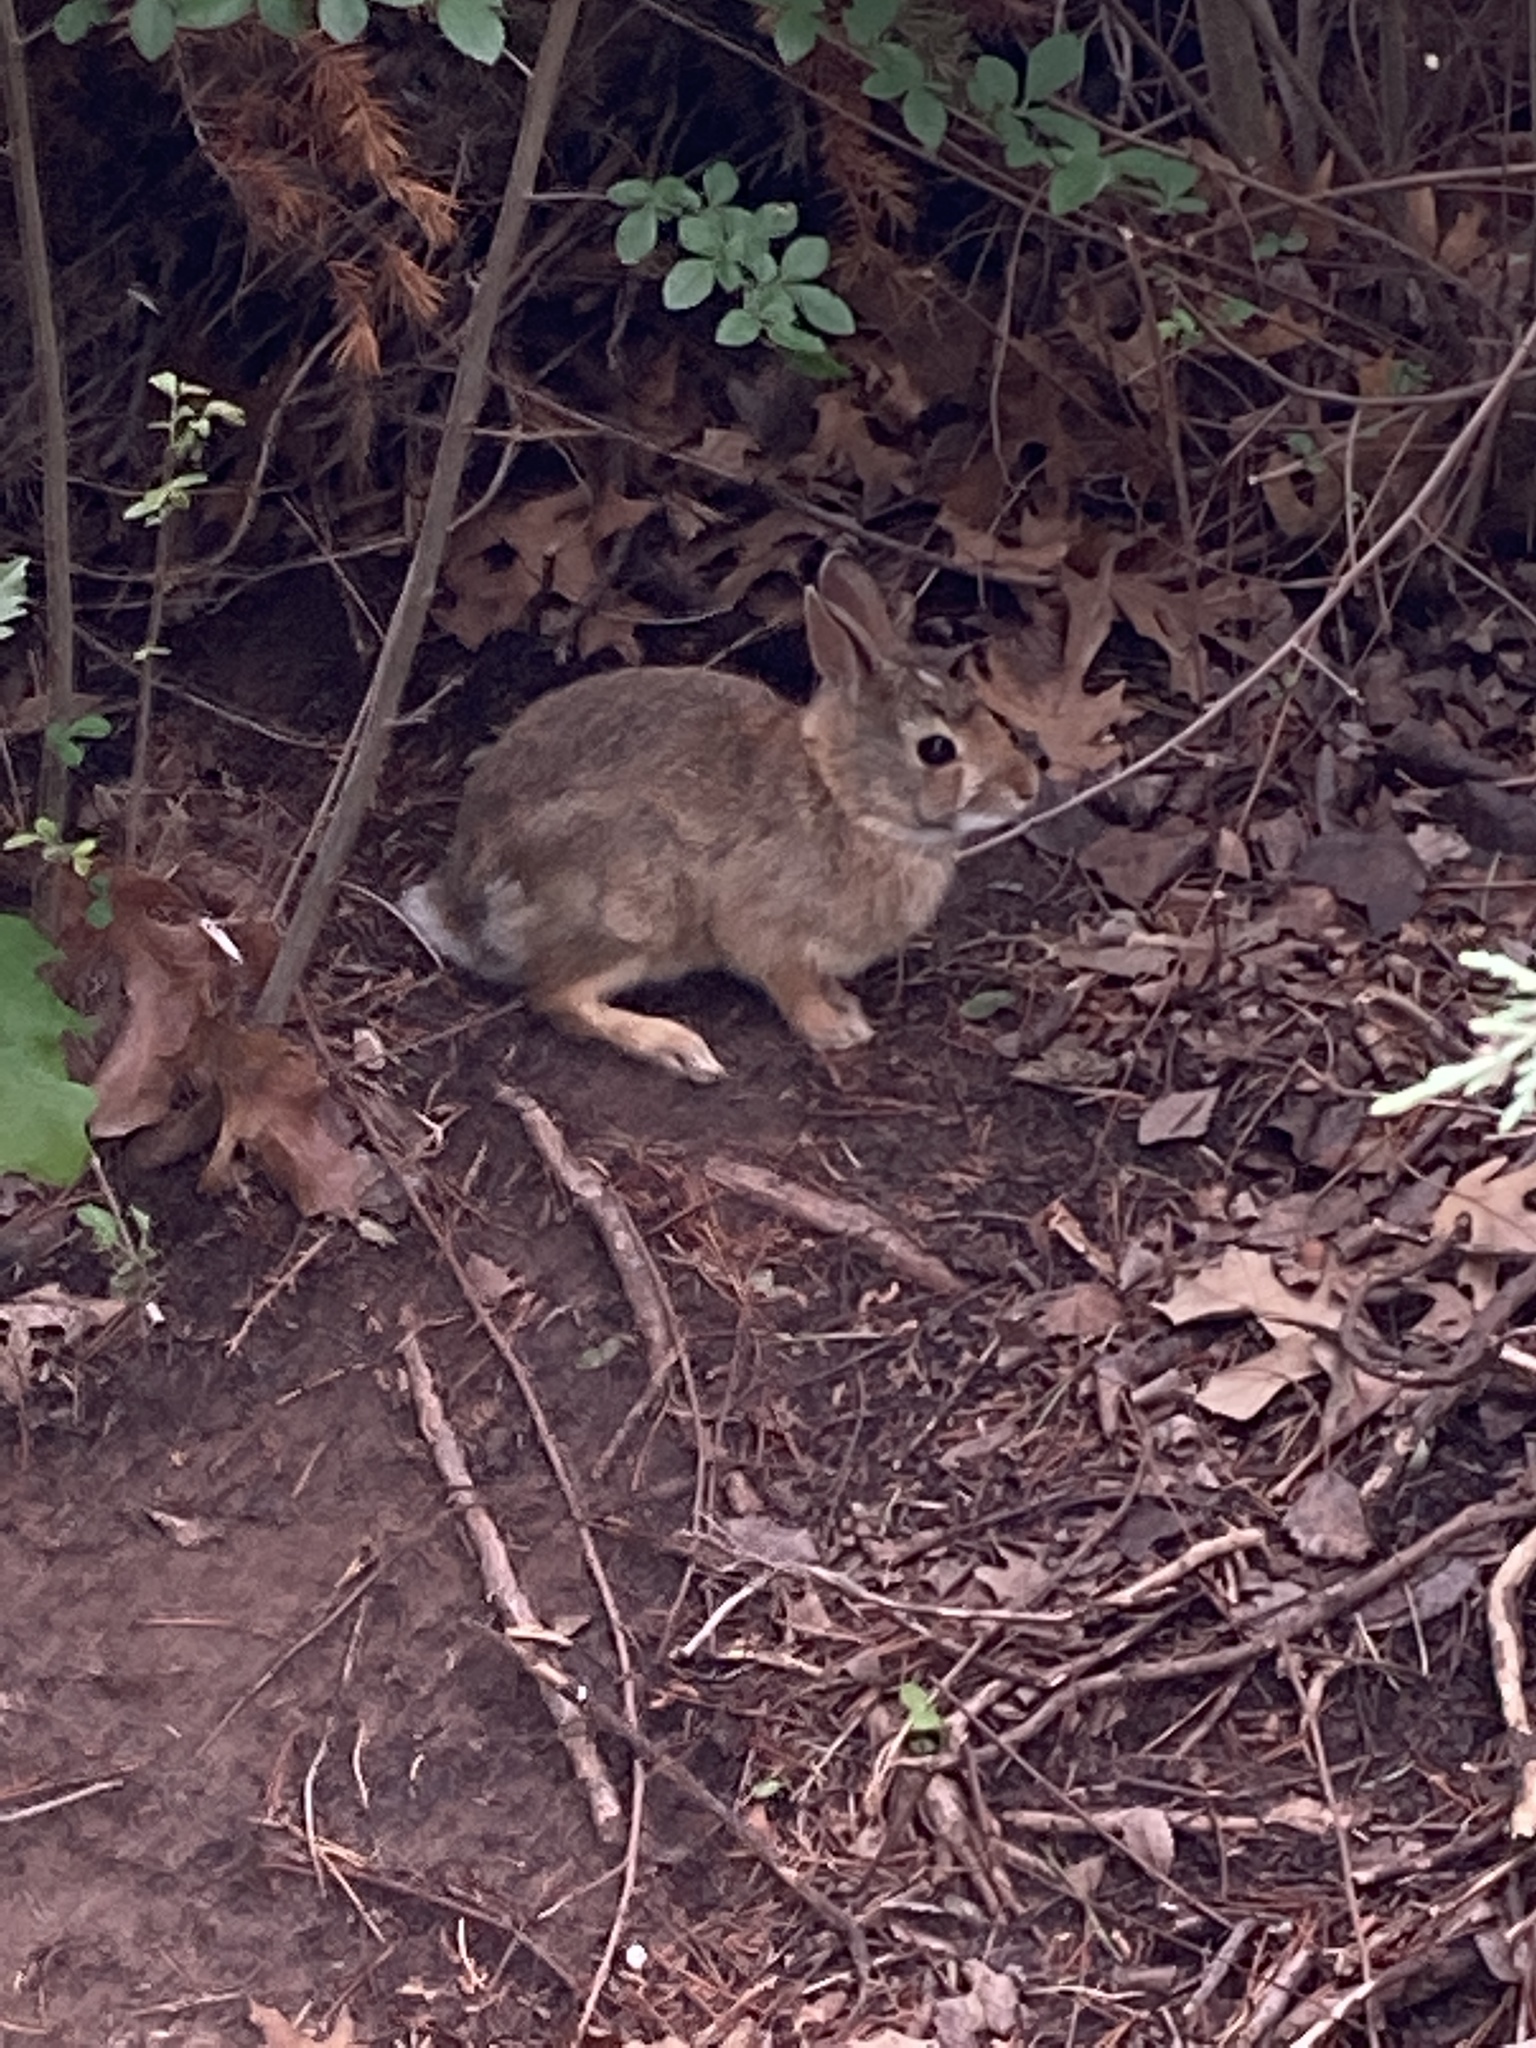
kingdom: Animalia
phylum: Chordata
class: Mammalia
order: Lagomorpha
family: Leporidae
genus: Sylvilagus
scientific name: Sylvilagus floridanus
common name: Eastern cottontail
